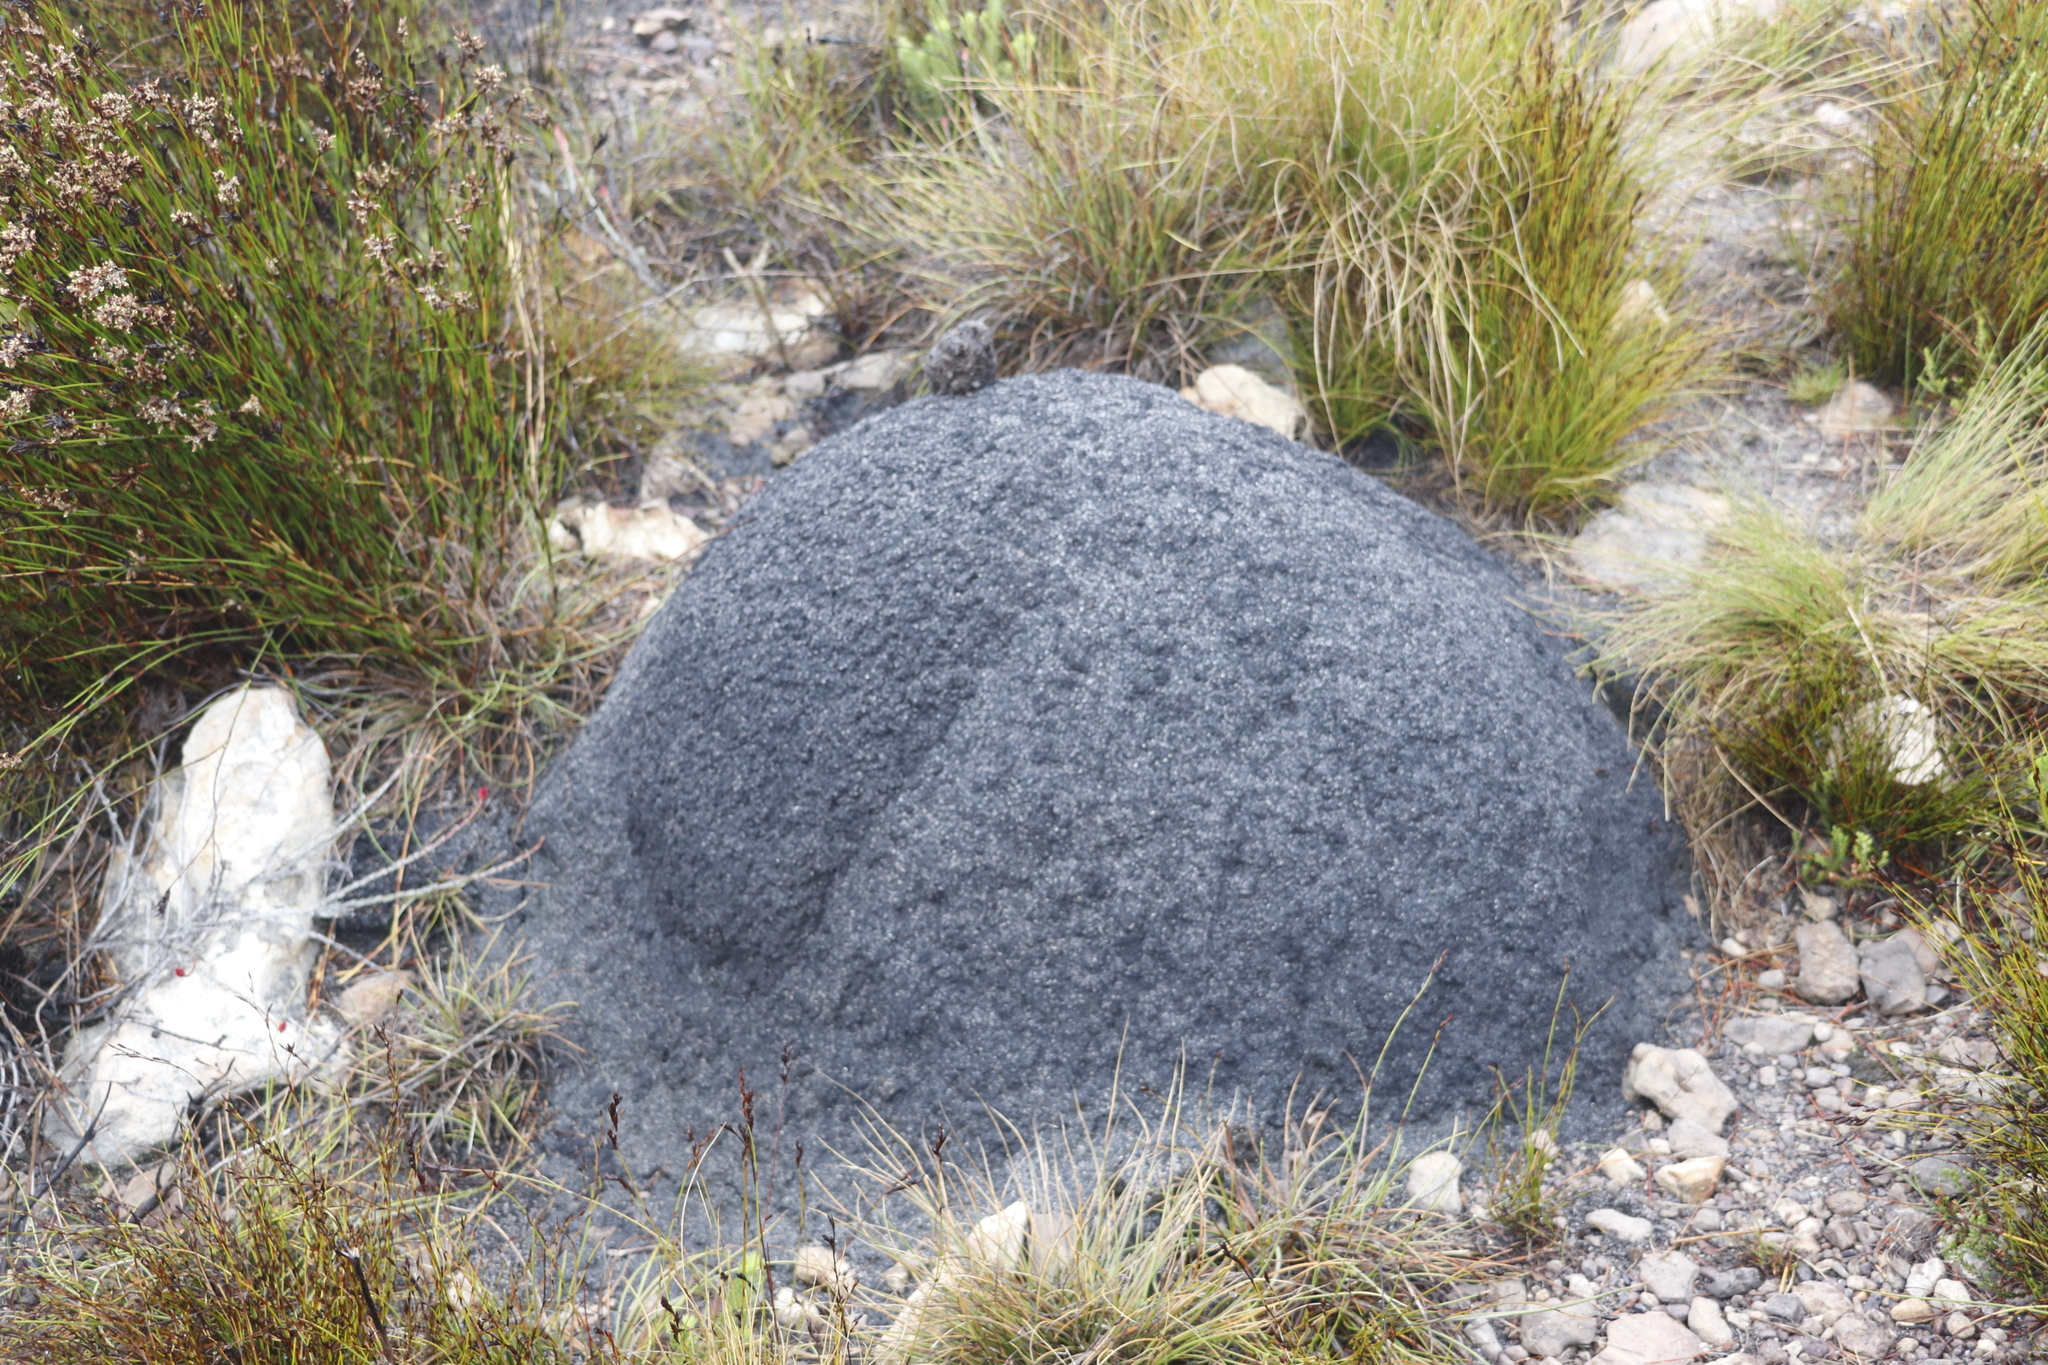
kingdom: Animalia
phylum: Arthropoda
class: Insecta
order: Blattodea
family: Termitidae
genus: Amitermes
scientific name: Amitermes hastatus
